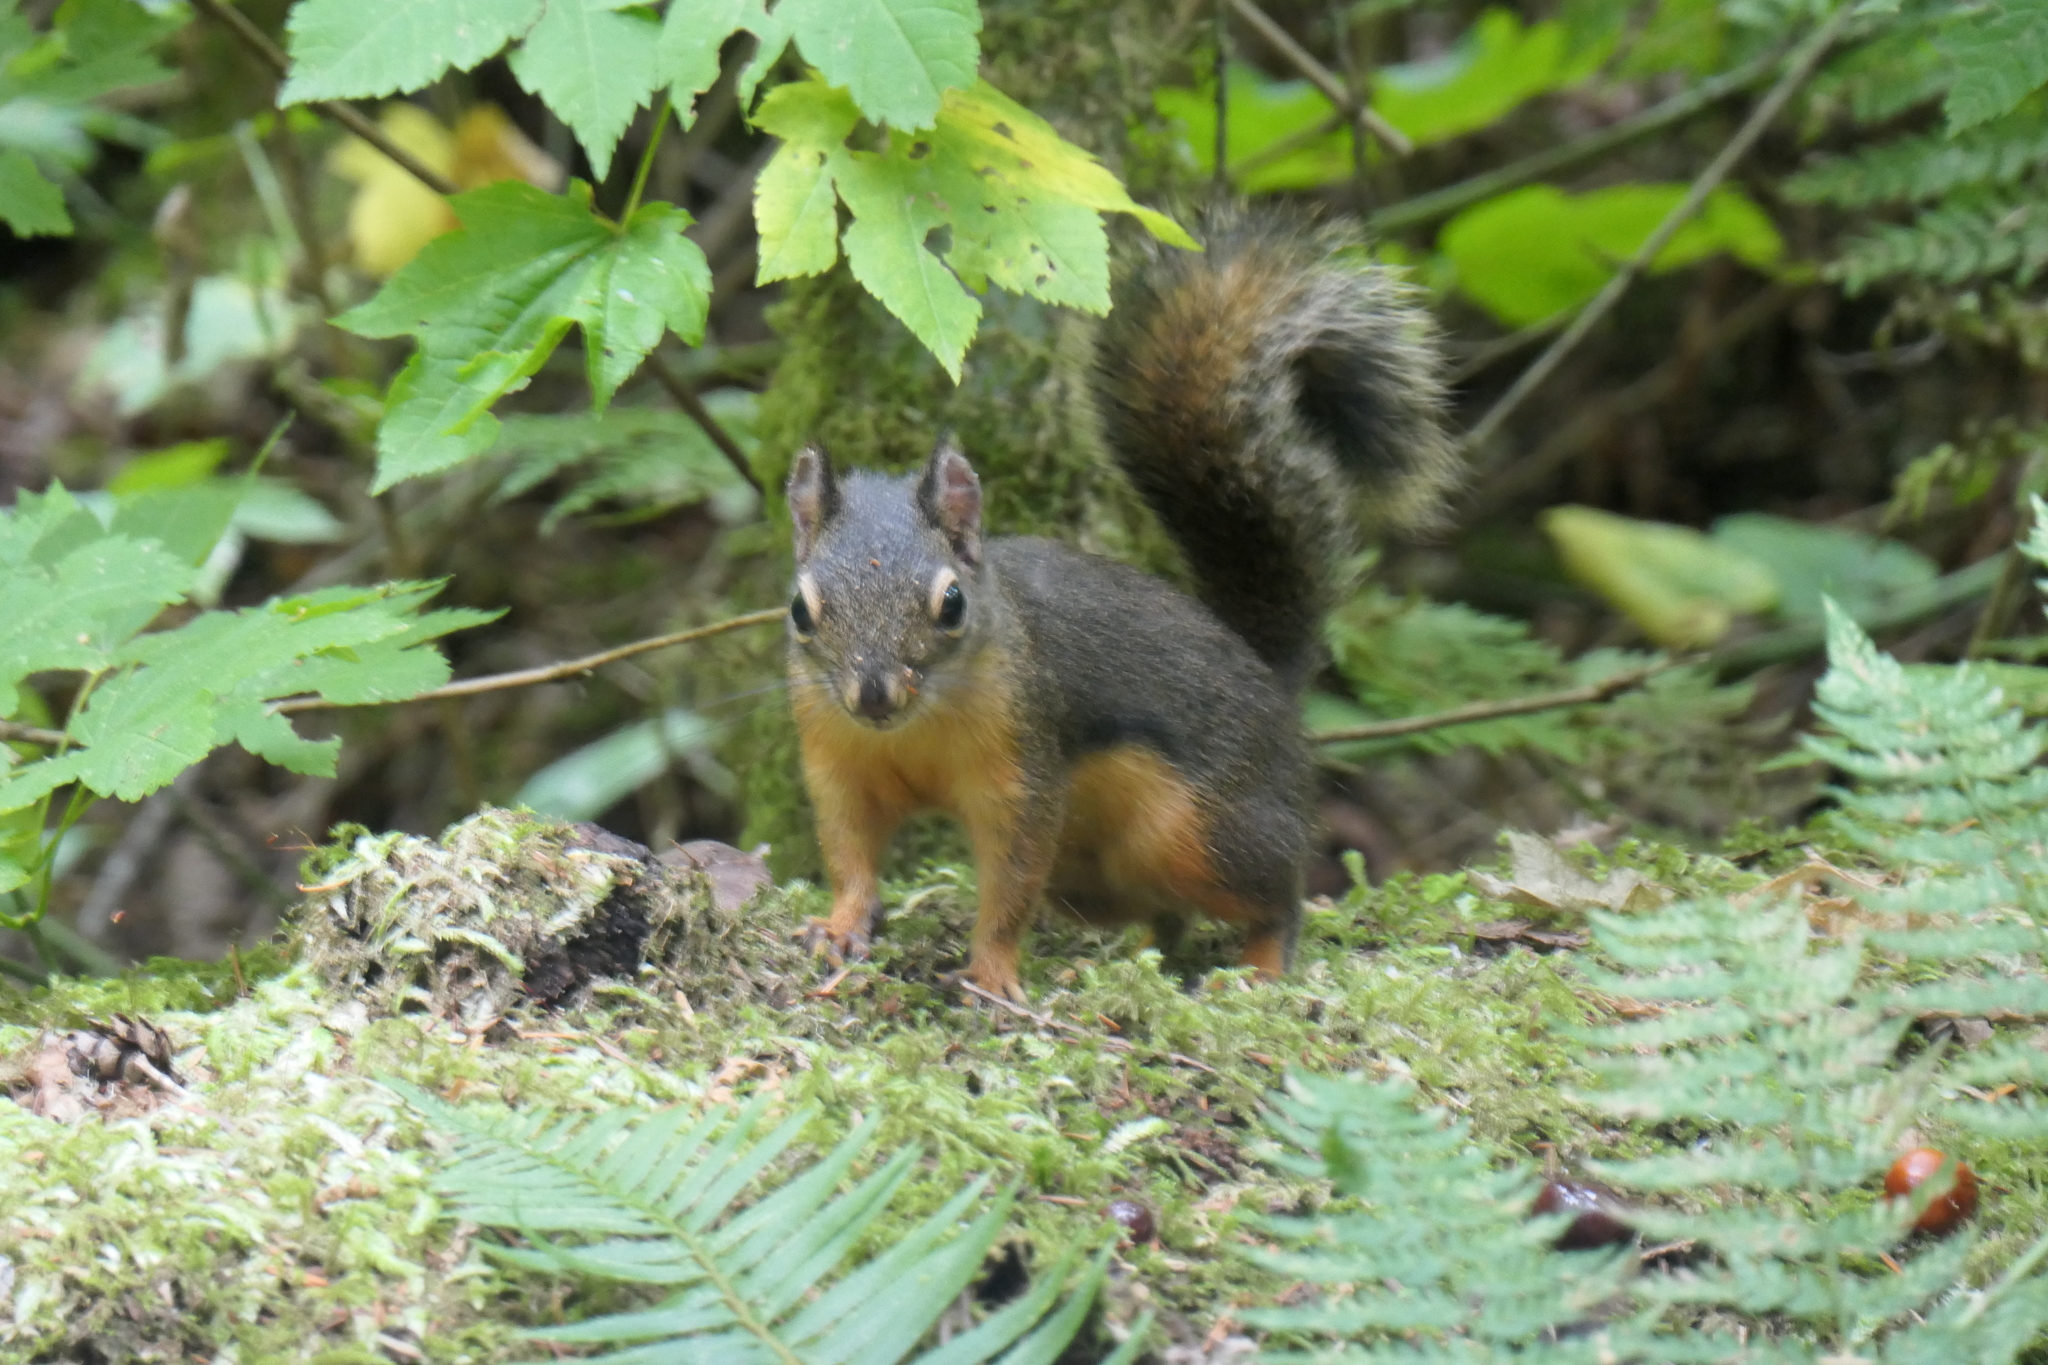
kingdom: Animalia
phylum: Chordata
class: Mammalia
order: Rodentia
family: Sciuridae
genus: Tamiasciurus
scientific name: Tamiasciurus douglasii
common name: Douglas's squirrel
